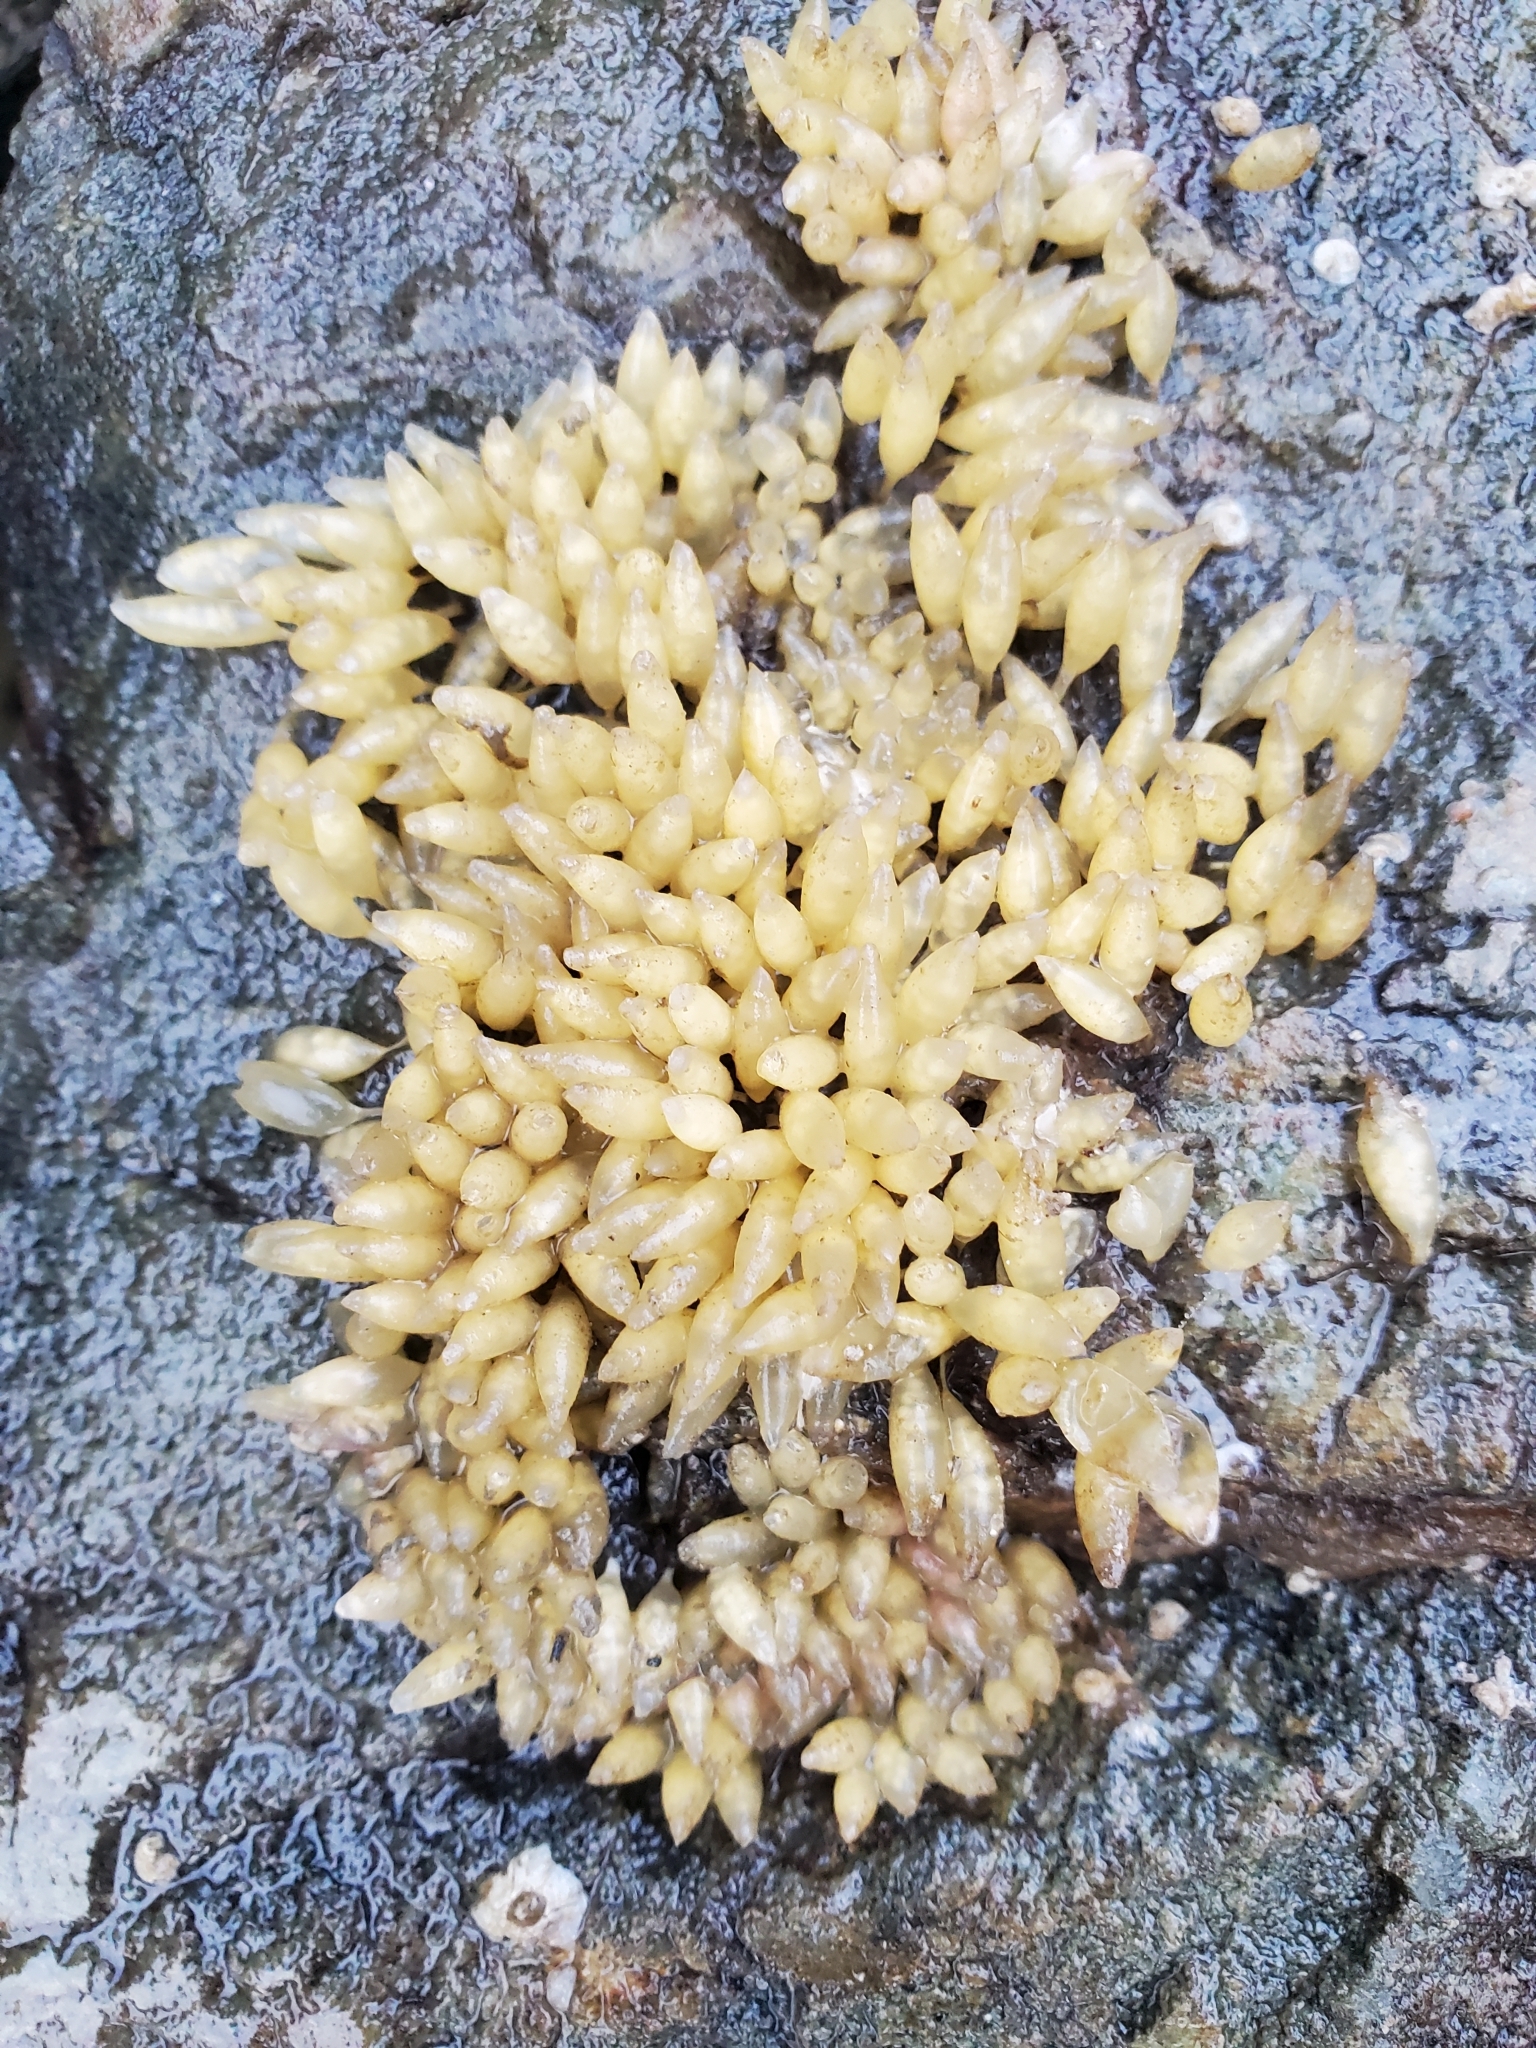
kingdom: Animalia
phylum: Mollusca
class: Gastropoda
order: Neogastropoda
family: Muricidae
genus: Nucella
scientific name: Nucella lamellosa
